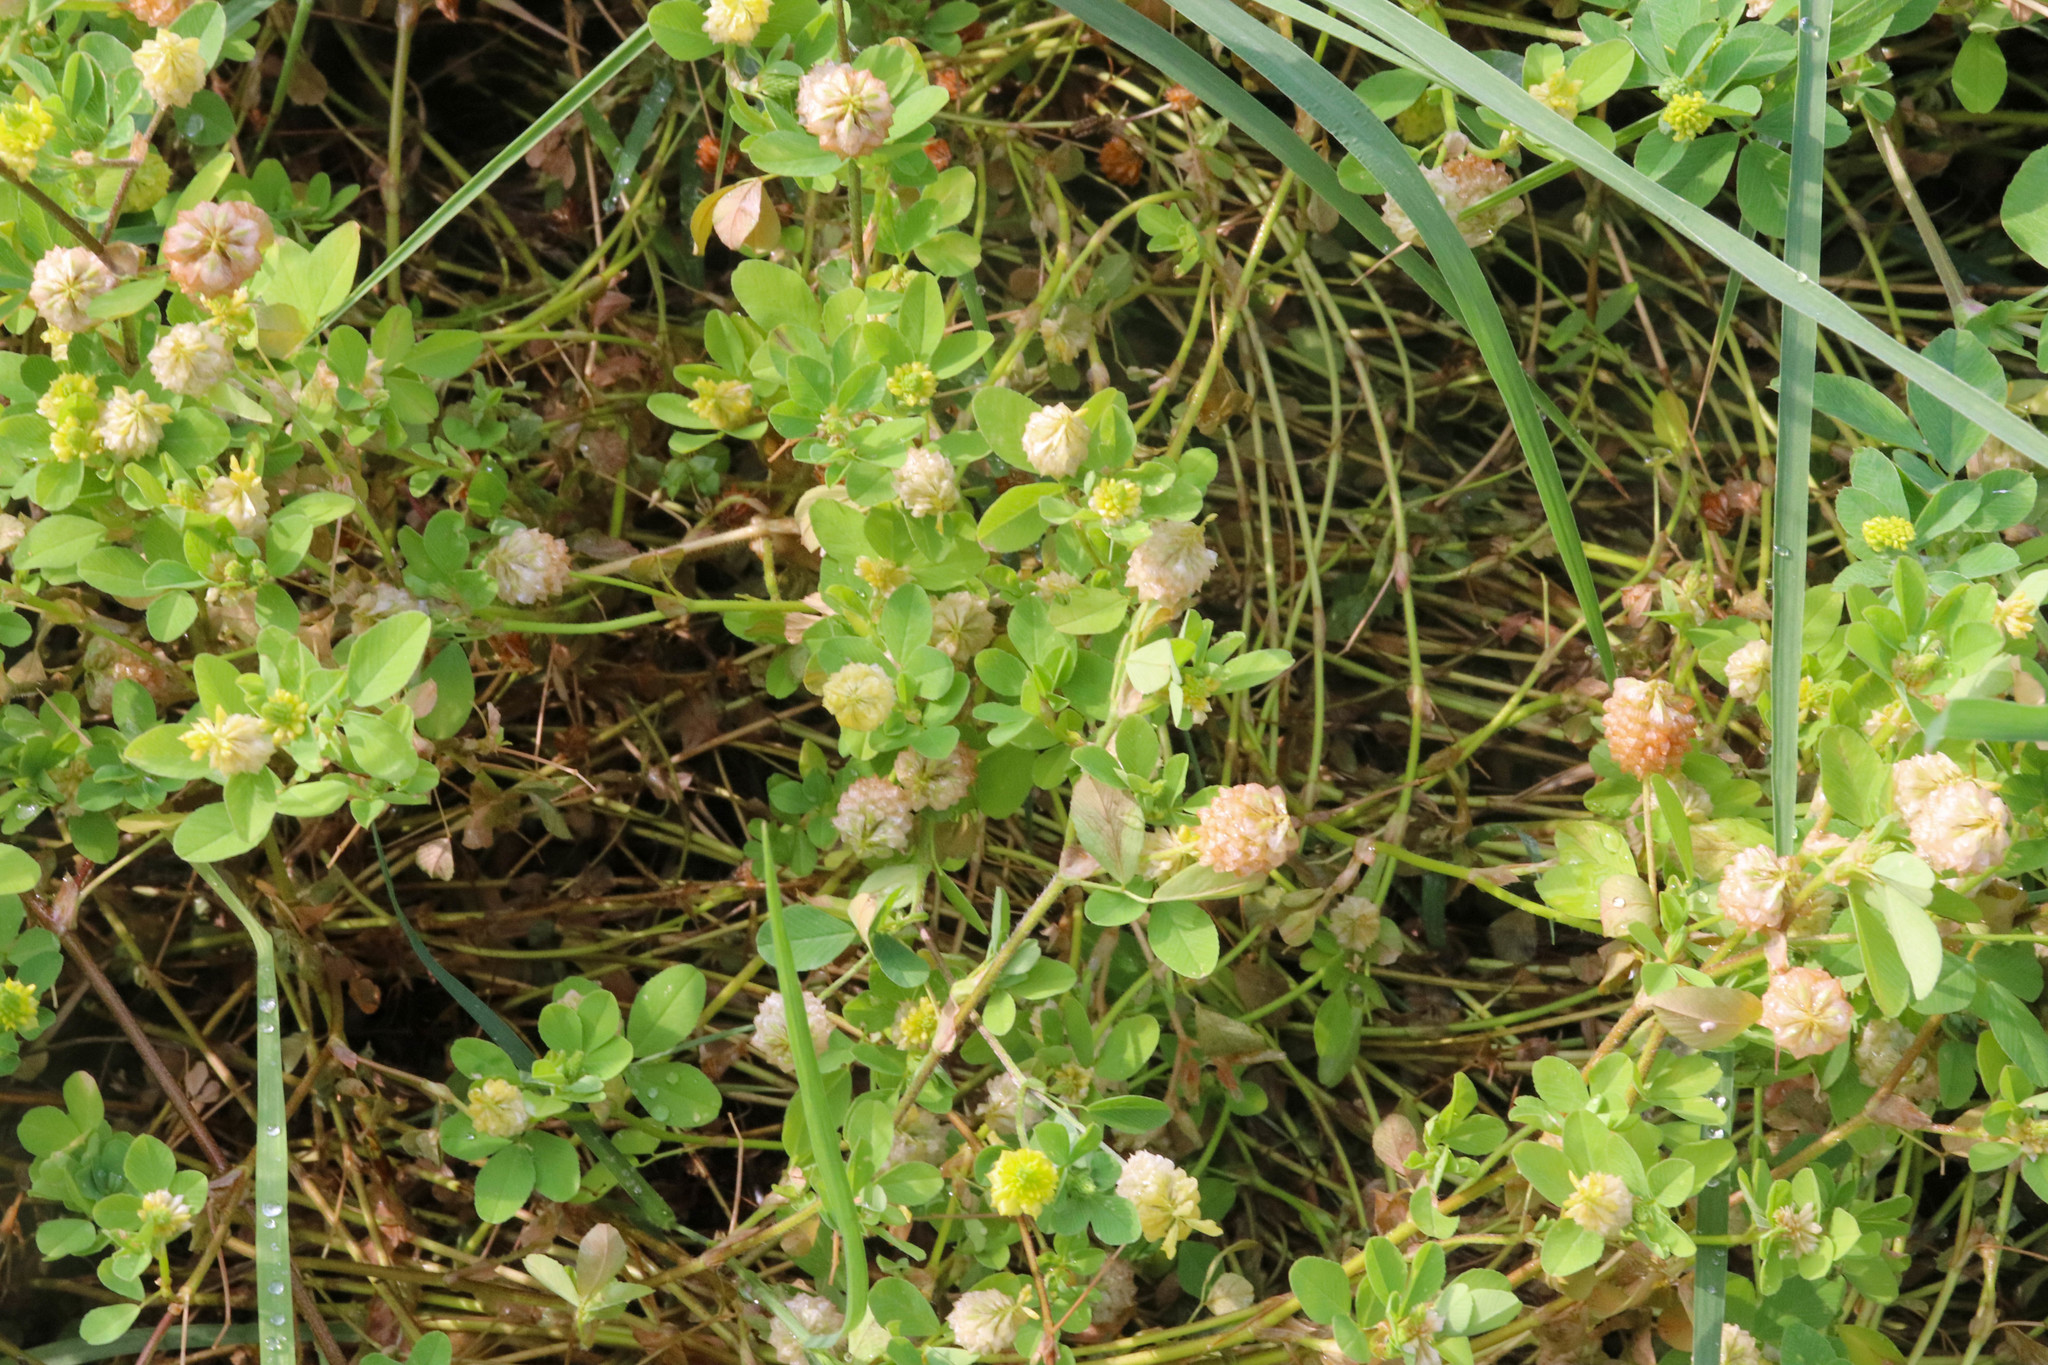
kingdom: Plantae
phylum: Tracheophyta
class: Magnoliopsida
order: Fabales
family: Fabaceae
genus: Trifolium
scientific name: Trifolium campestre
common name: Field clover
